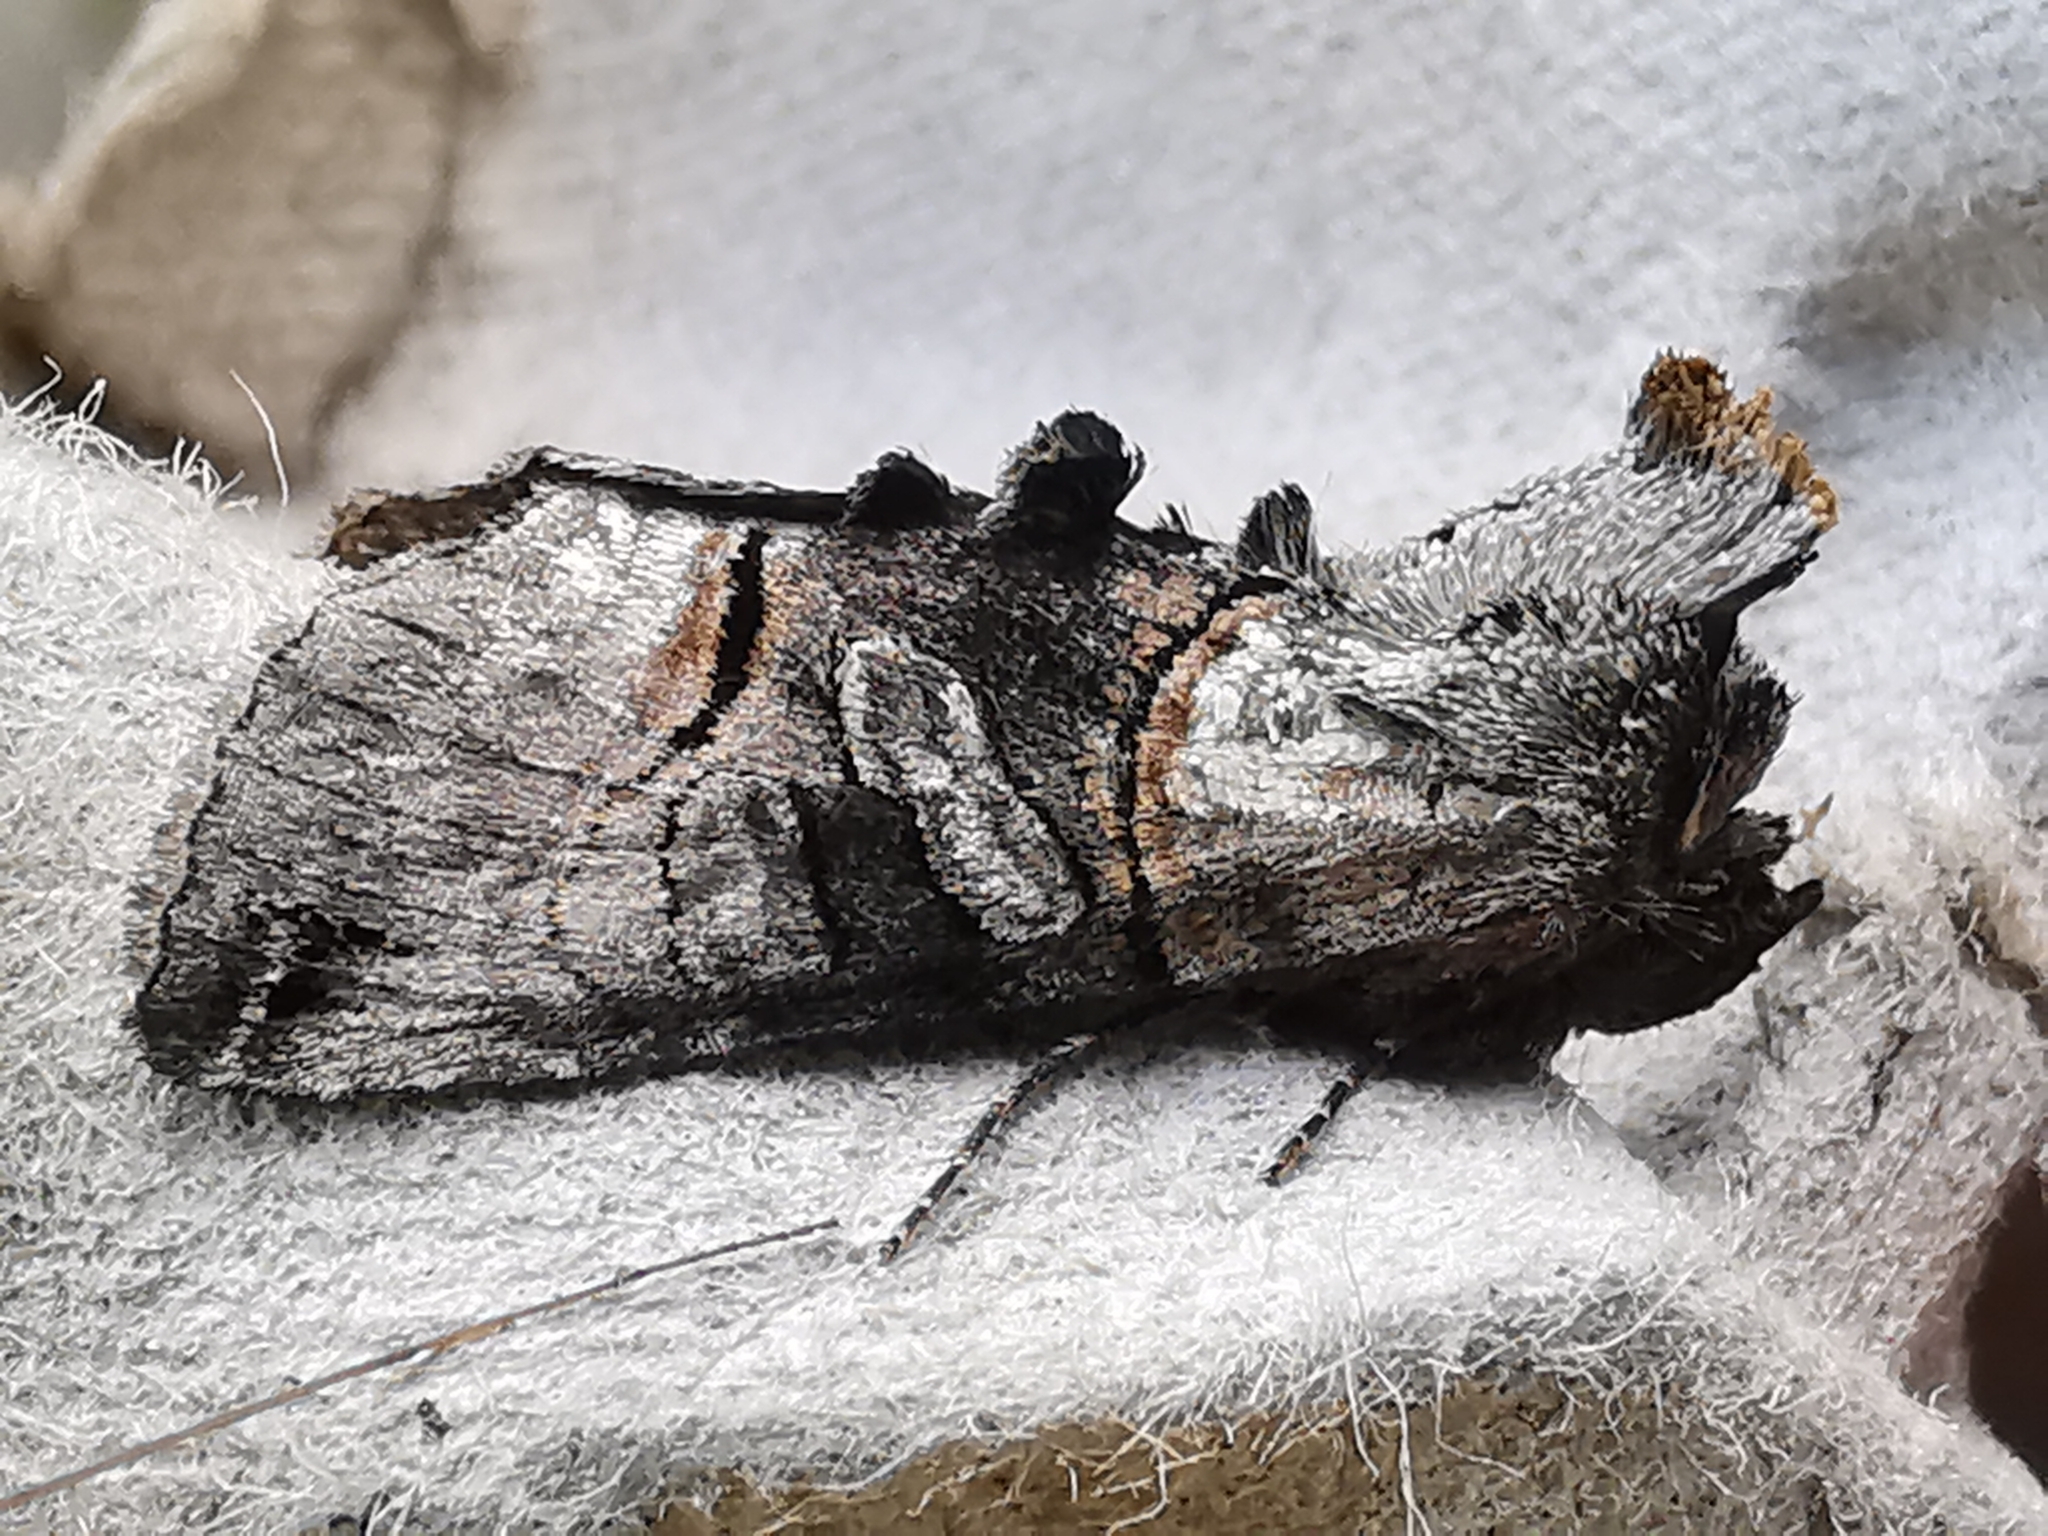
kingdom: Animalia
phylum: Arthropoda
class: Insecta
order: Lepidoptera
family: Noctuidae
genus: Abrostola
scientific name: Abrostola tripartita
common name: Spectacle
